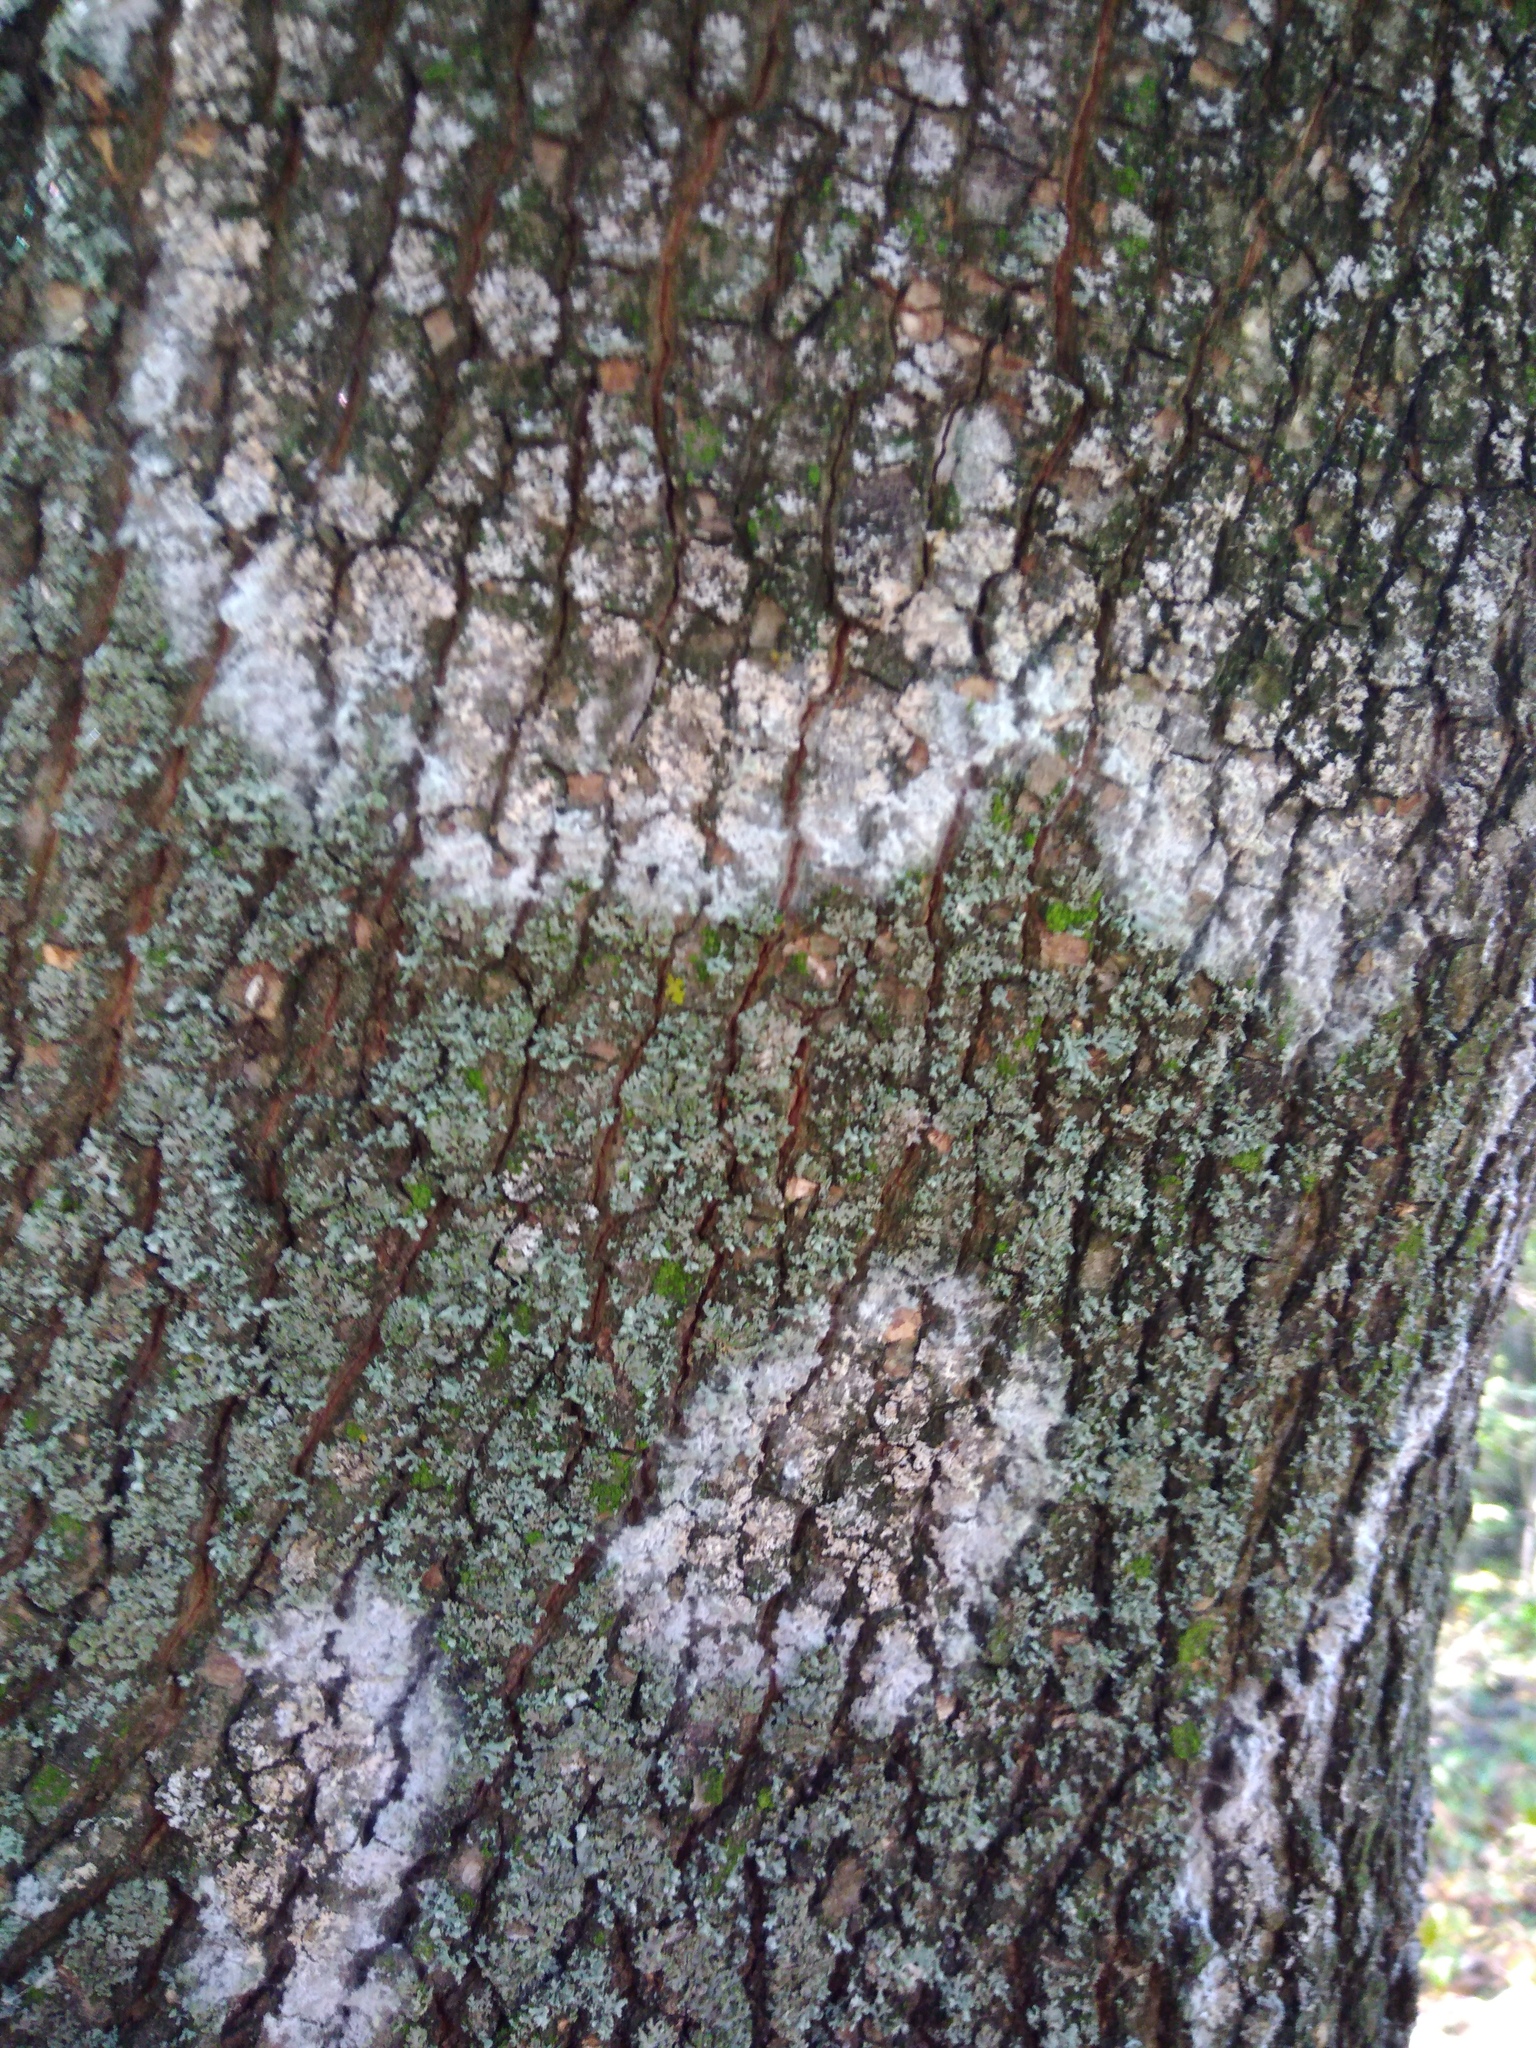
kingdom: Fungi
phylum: Basidiomycota
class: Agaricomycetes
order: Atheliales
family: Atheliaceae
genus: Athelia
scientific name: Athelia arachnoidea
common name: Candelabra duster
